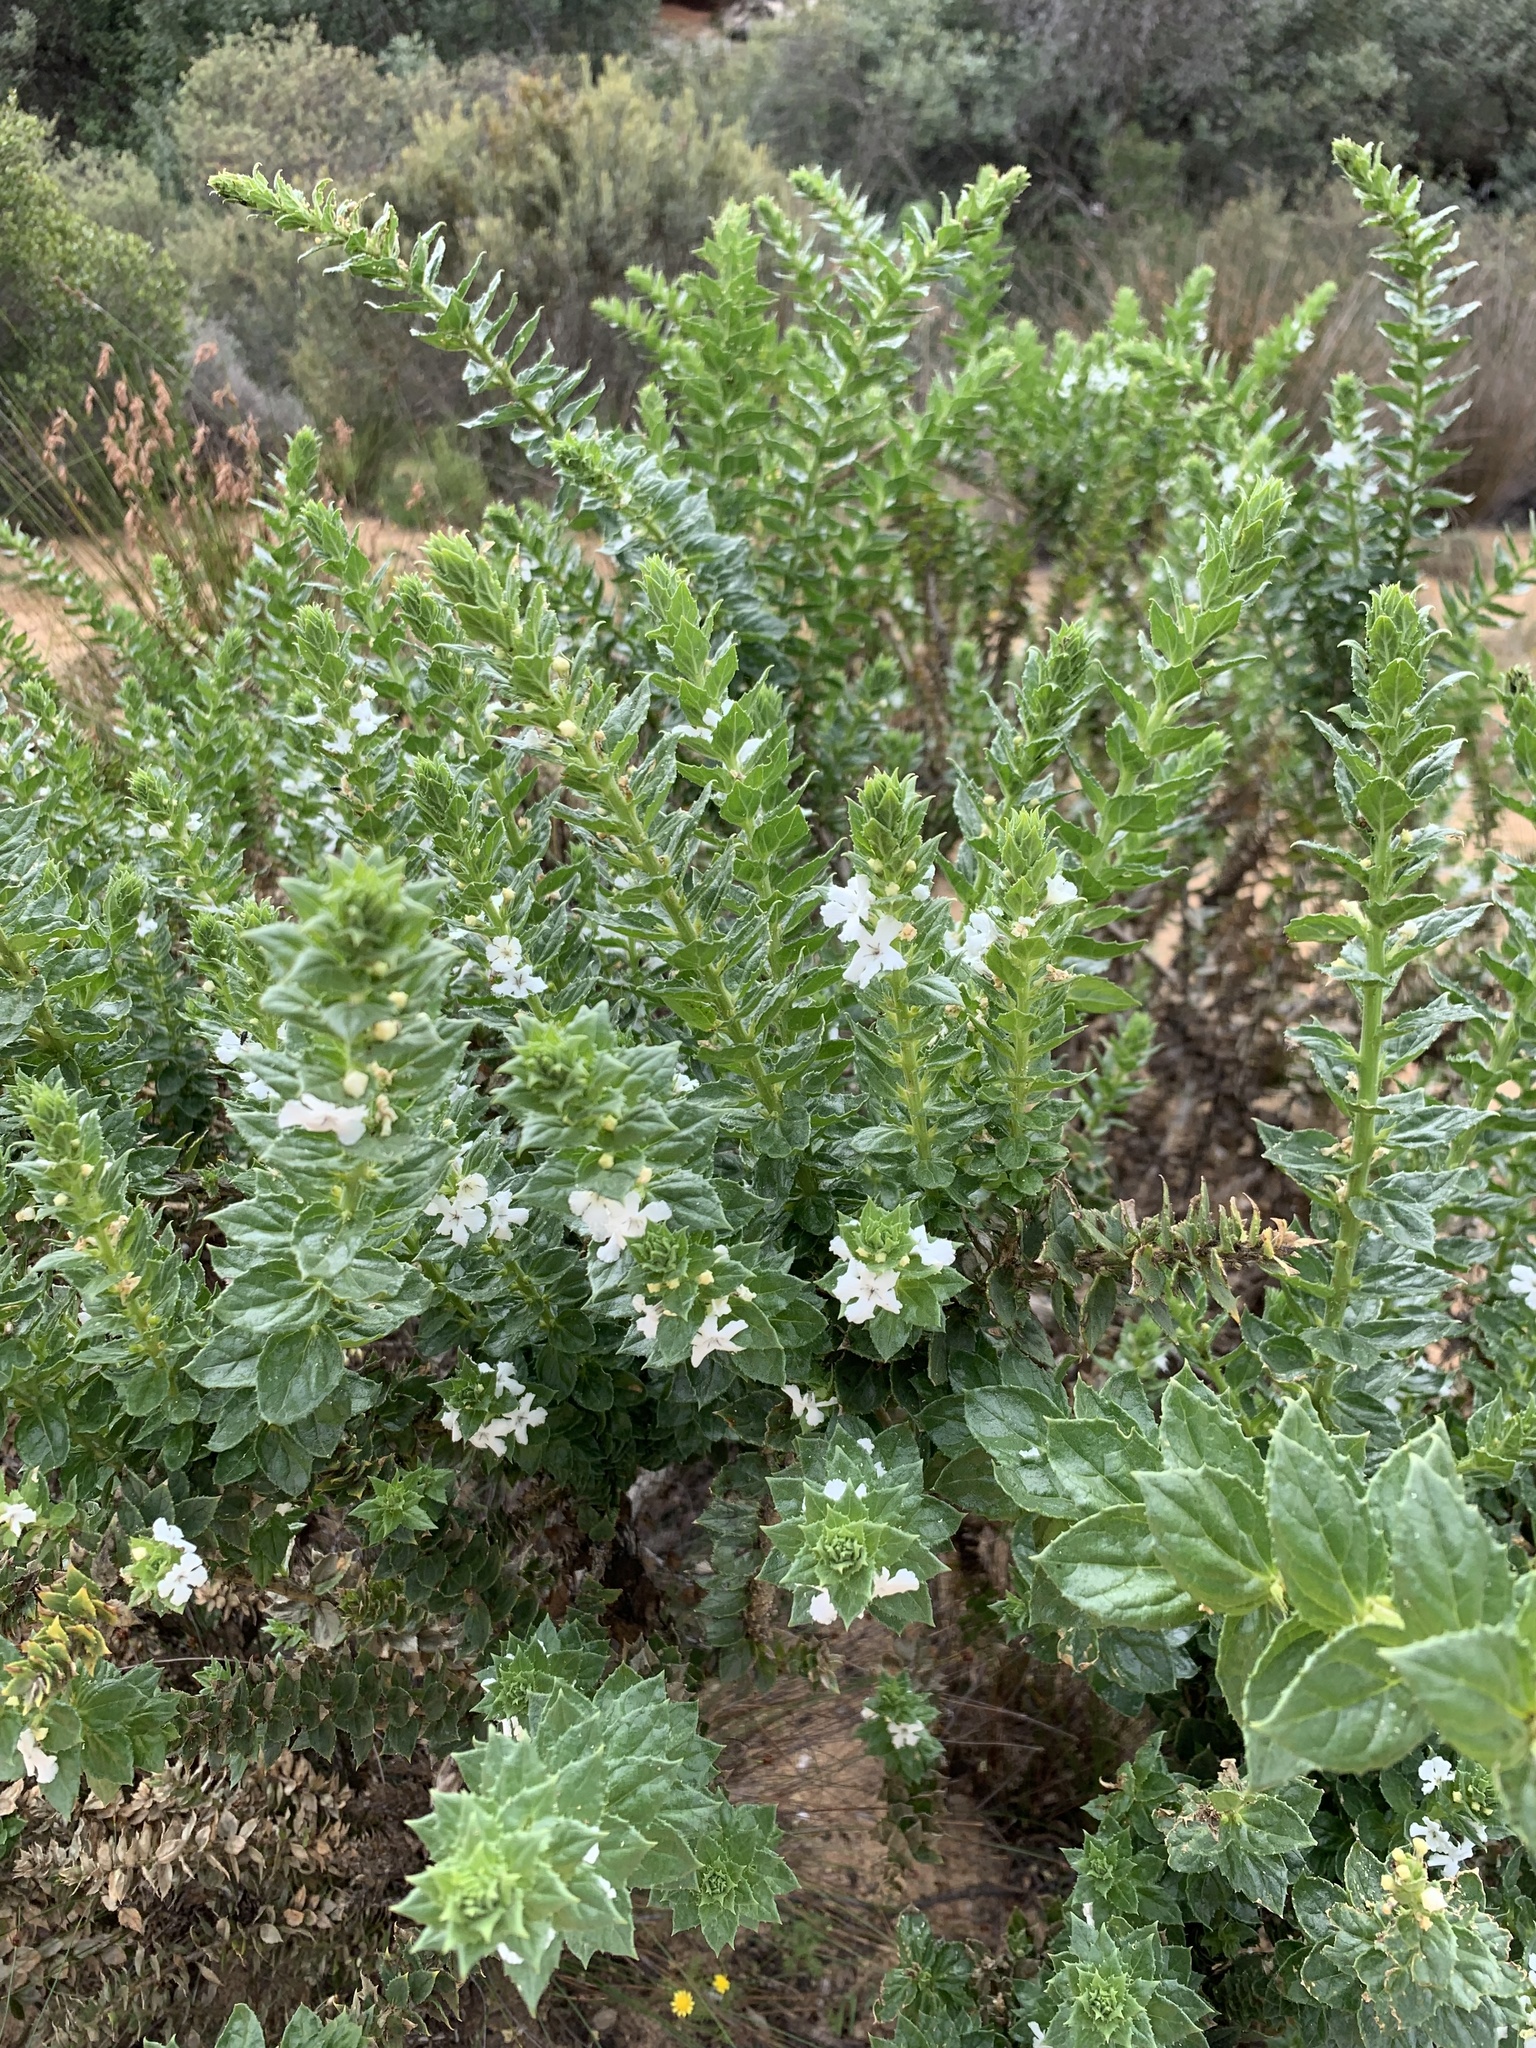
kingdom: Plantae
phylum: Tracheophyta
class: Magnoliopsida
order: Lamiales
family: Scrophulariaceae
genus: Oftia
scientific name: Oftia africana
